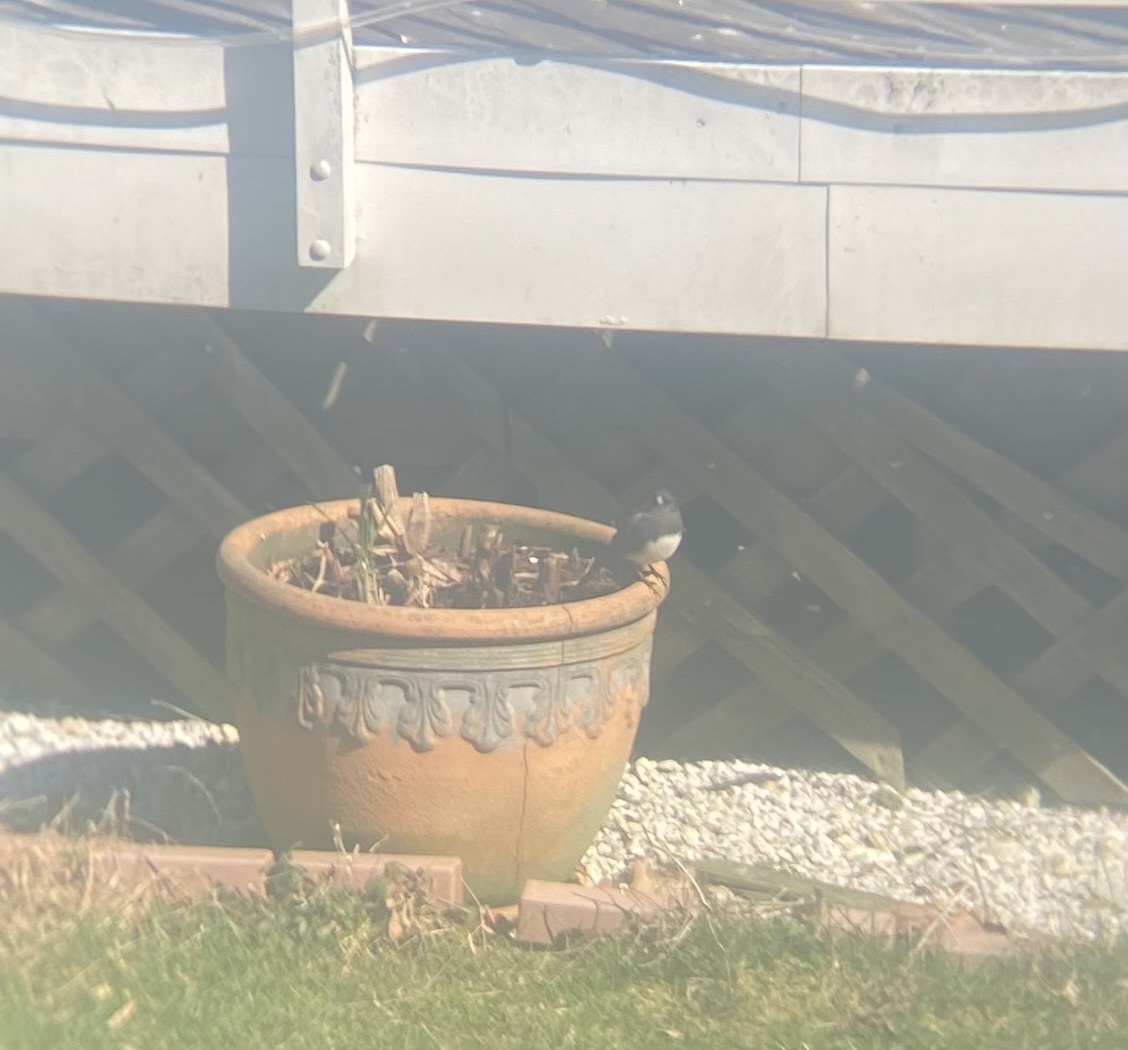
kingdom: Animalia
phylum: Chordata
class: Aves
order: Passeriformes
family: Passerellidae
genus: Junco
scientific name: Junco hyemalis
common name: Dark-eyed junco
